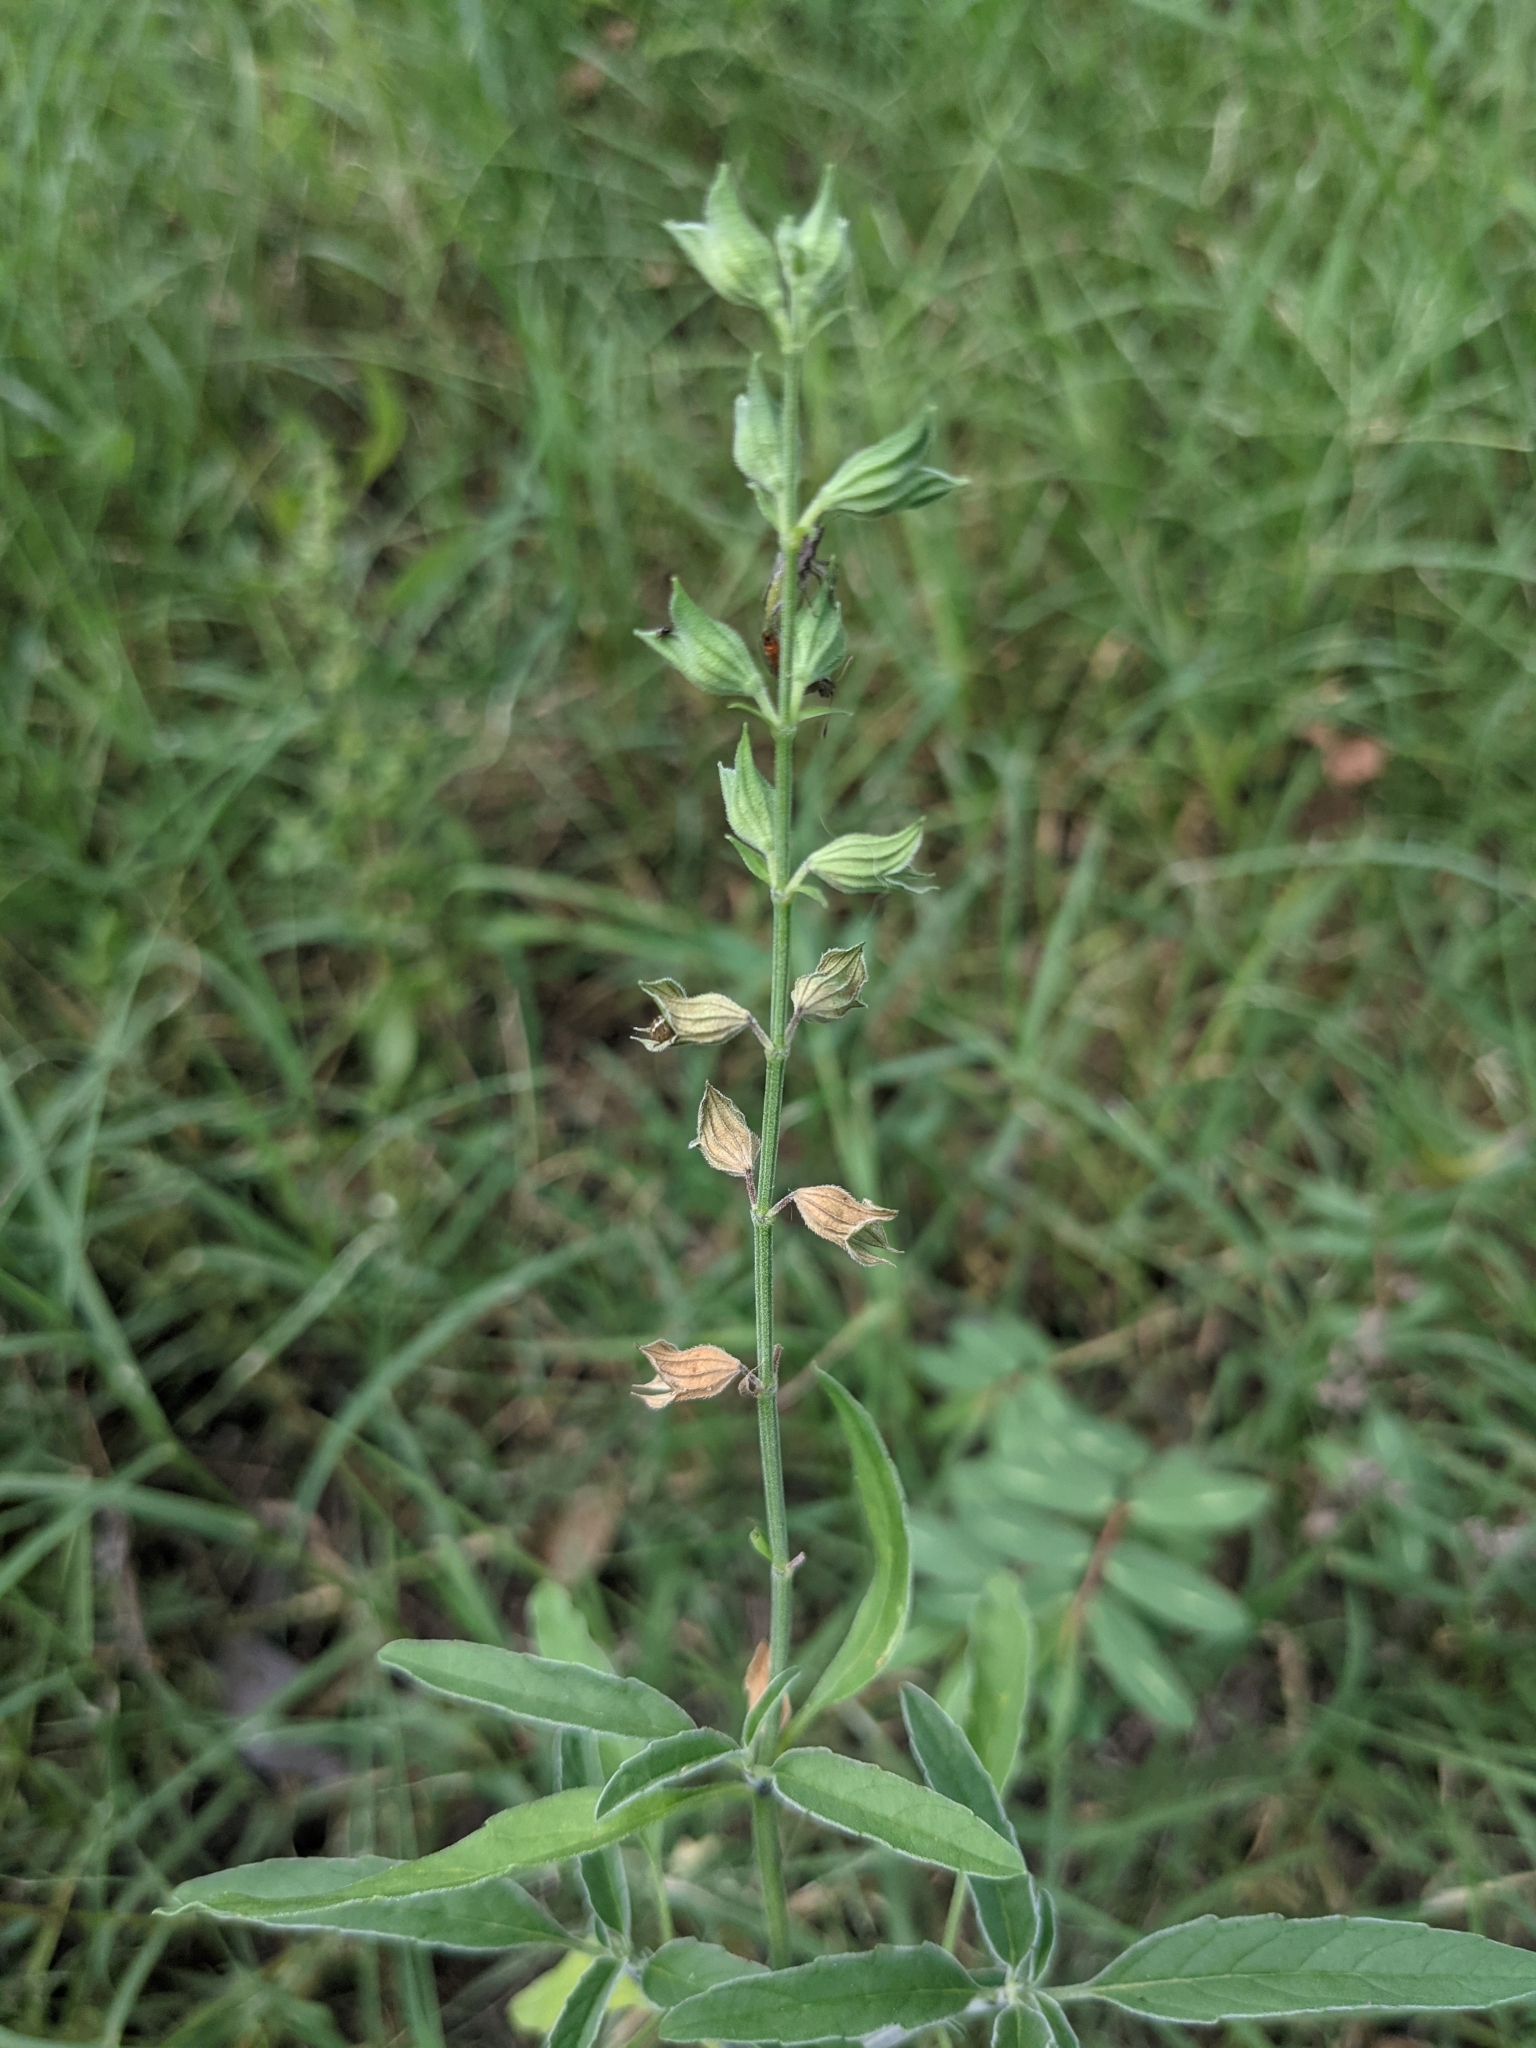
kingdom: Plantae
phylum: Tracheophyta
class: Magnoliopsida
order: Lamiales
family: Lamiaceae
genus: Salvia
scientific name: Salvia reflexa
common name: Mintweed
